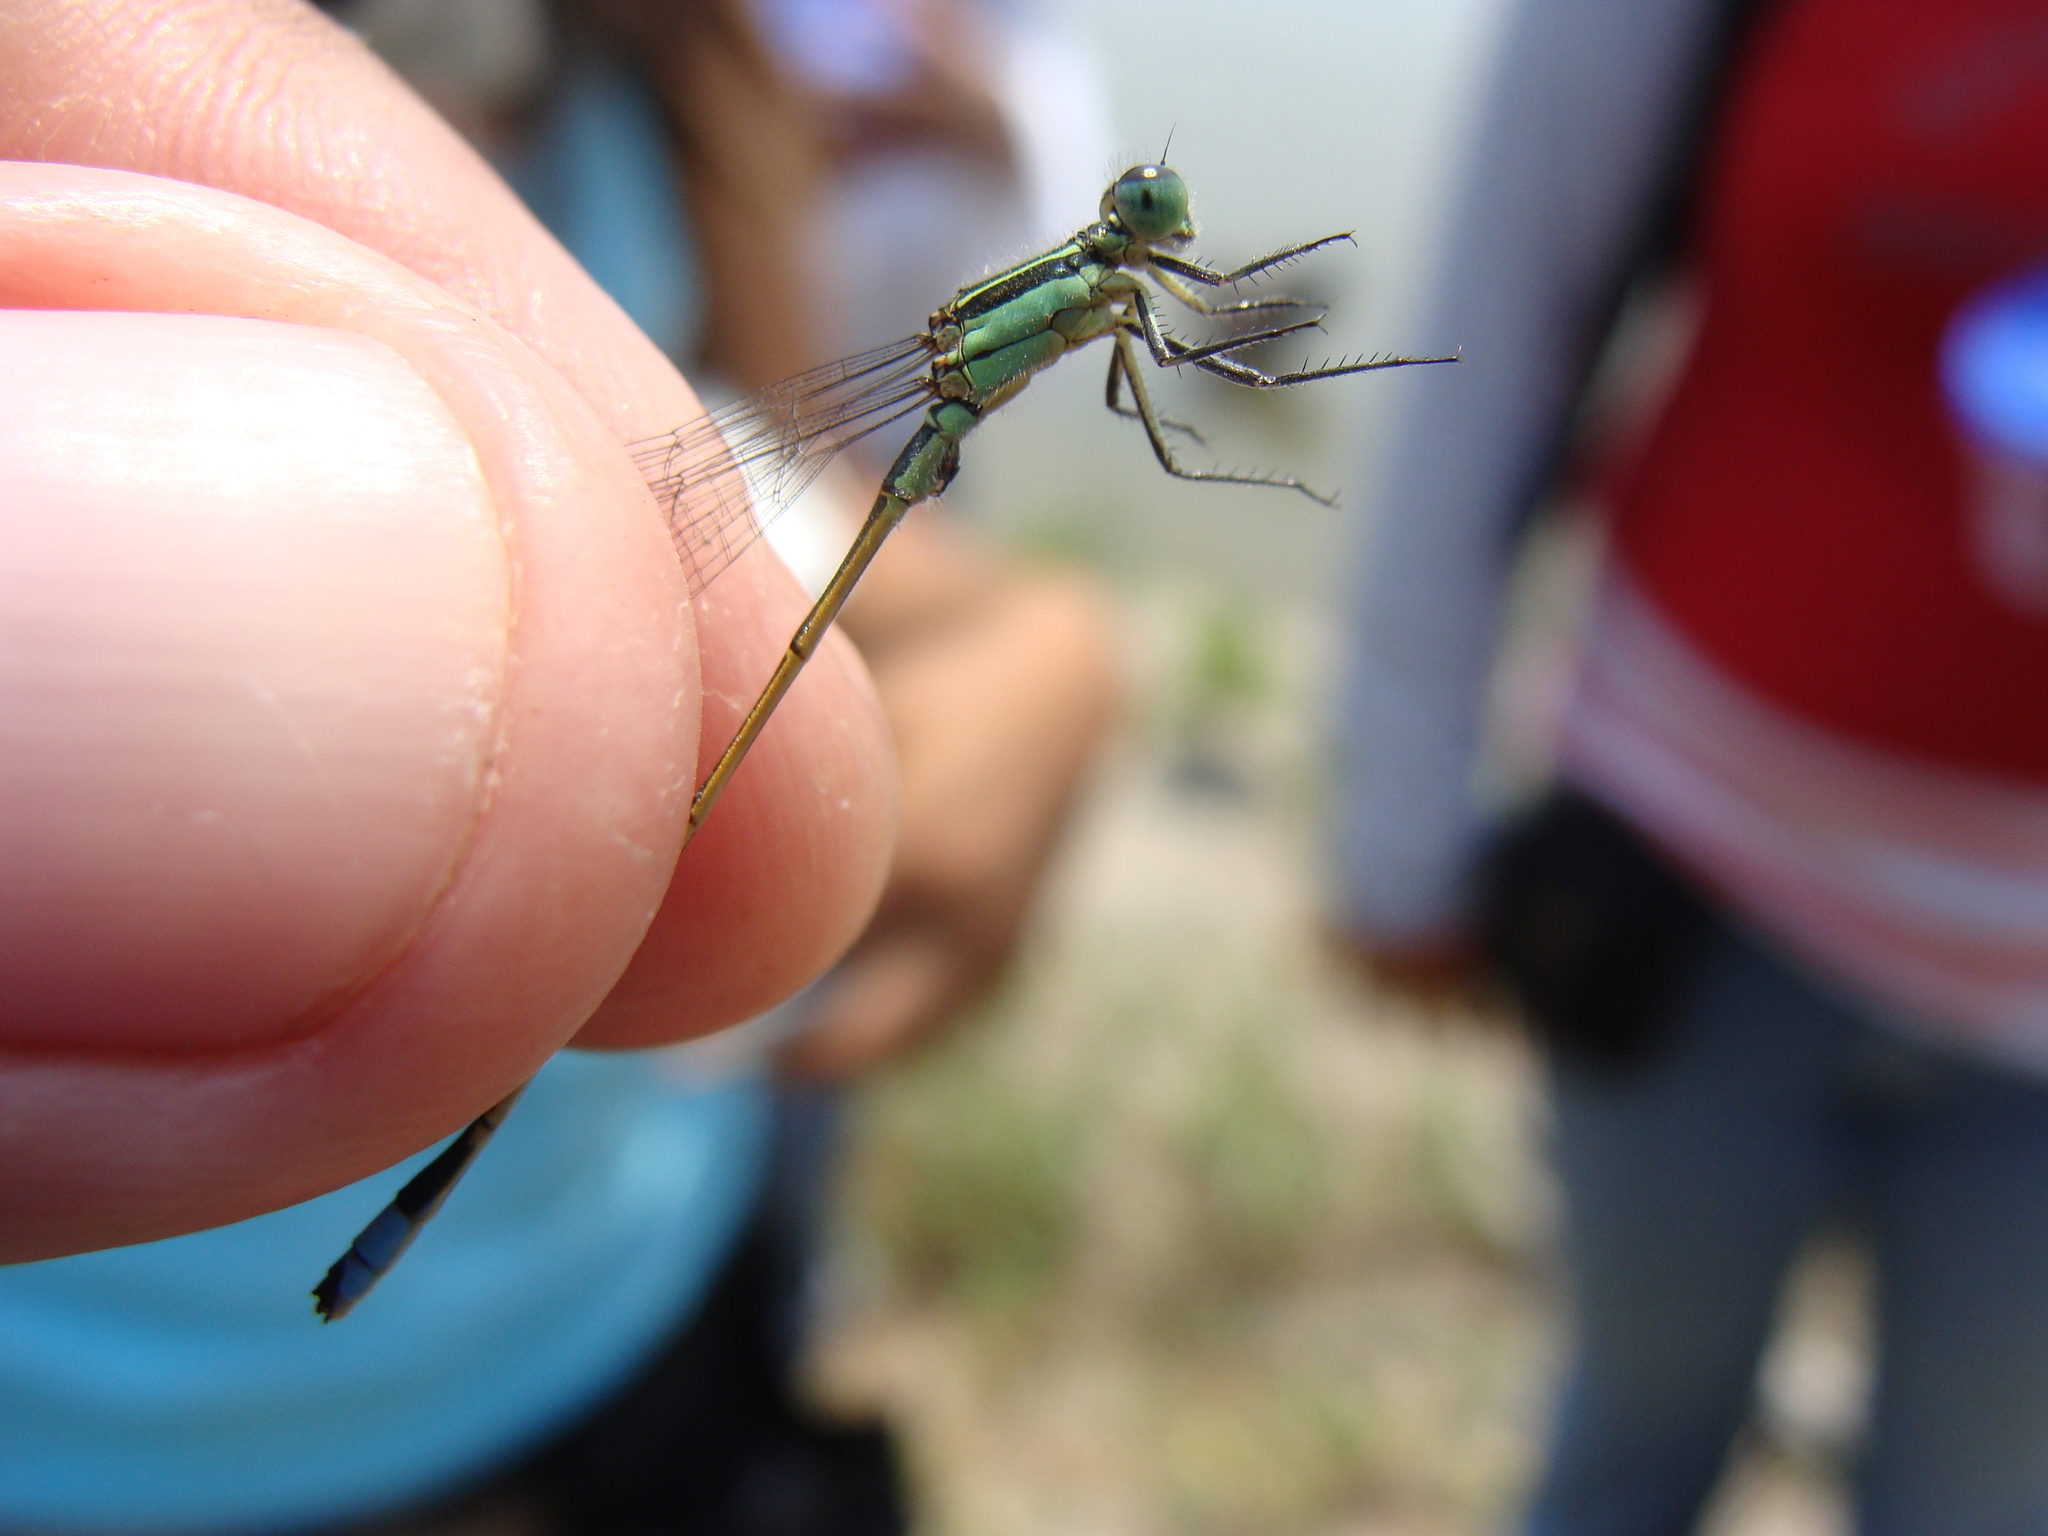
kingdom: Animalia
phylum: Arthropoda
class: Insecta
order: Odonata
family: Coenagrionidae
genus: Ischnura
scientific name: Ischnura ramburii
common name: Rambur's forktail
